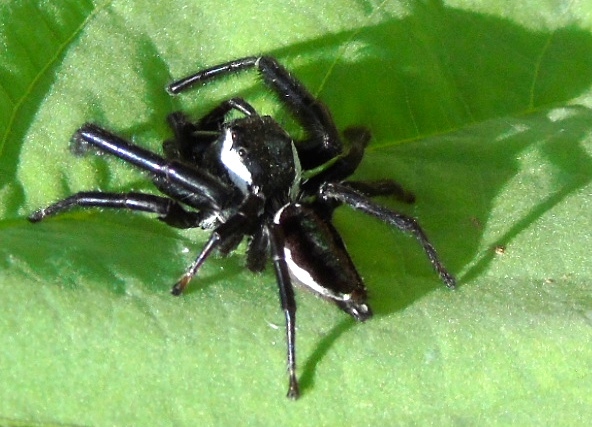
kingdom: Animalia
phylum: Arthropoda
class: Arachnida
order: Araneae
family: Salticidae
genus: Messua
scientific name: Messua
